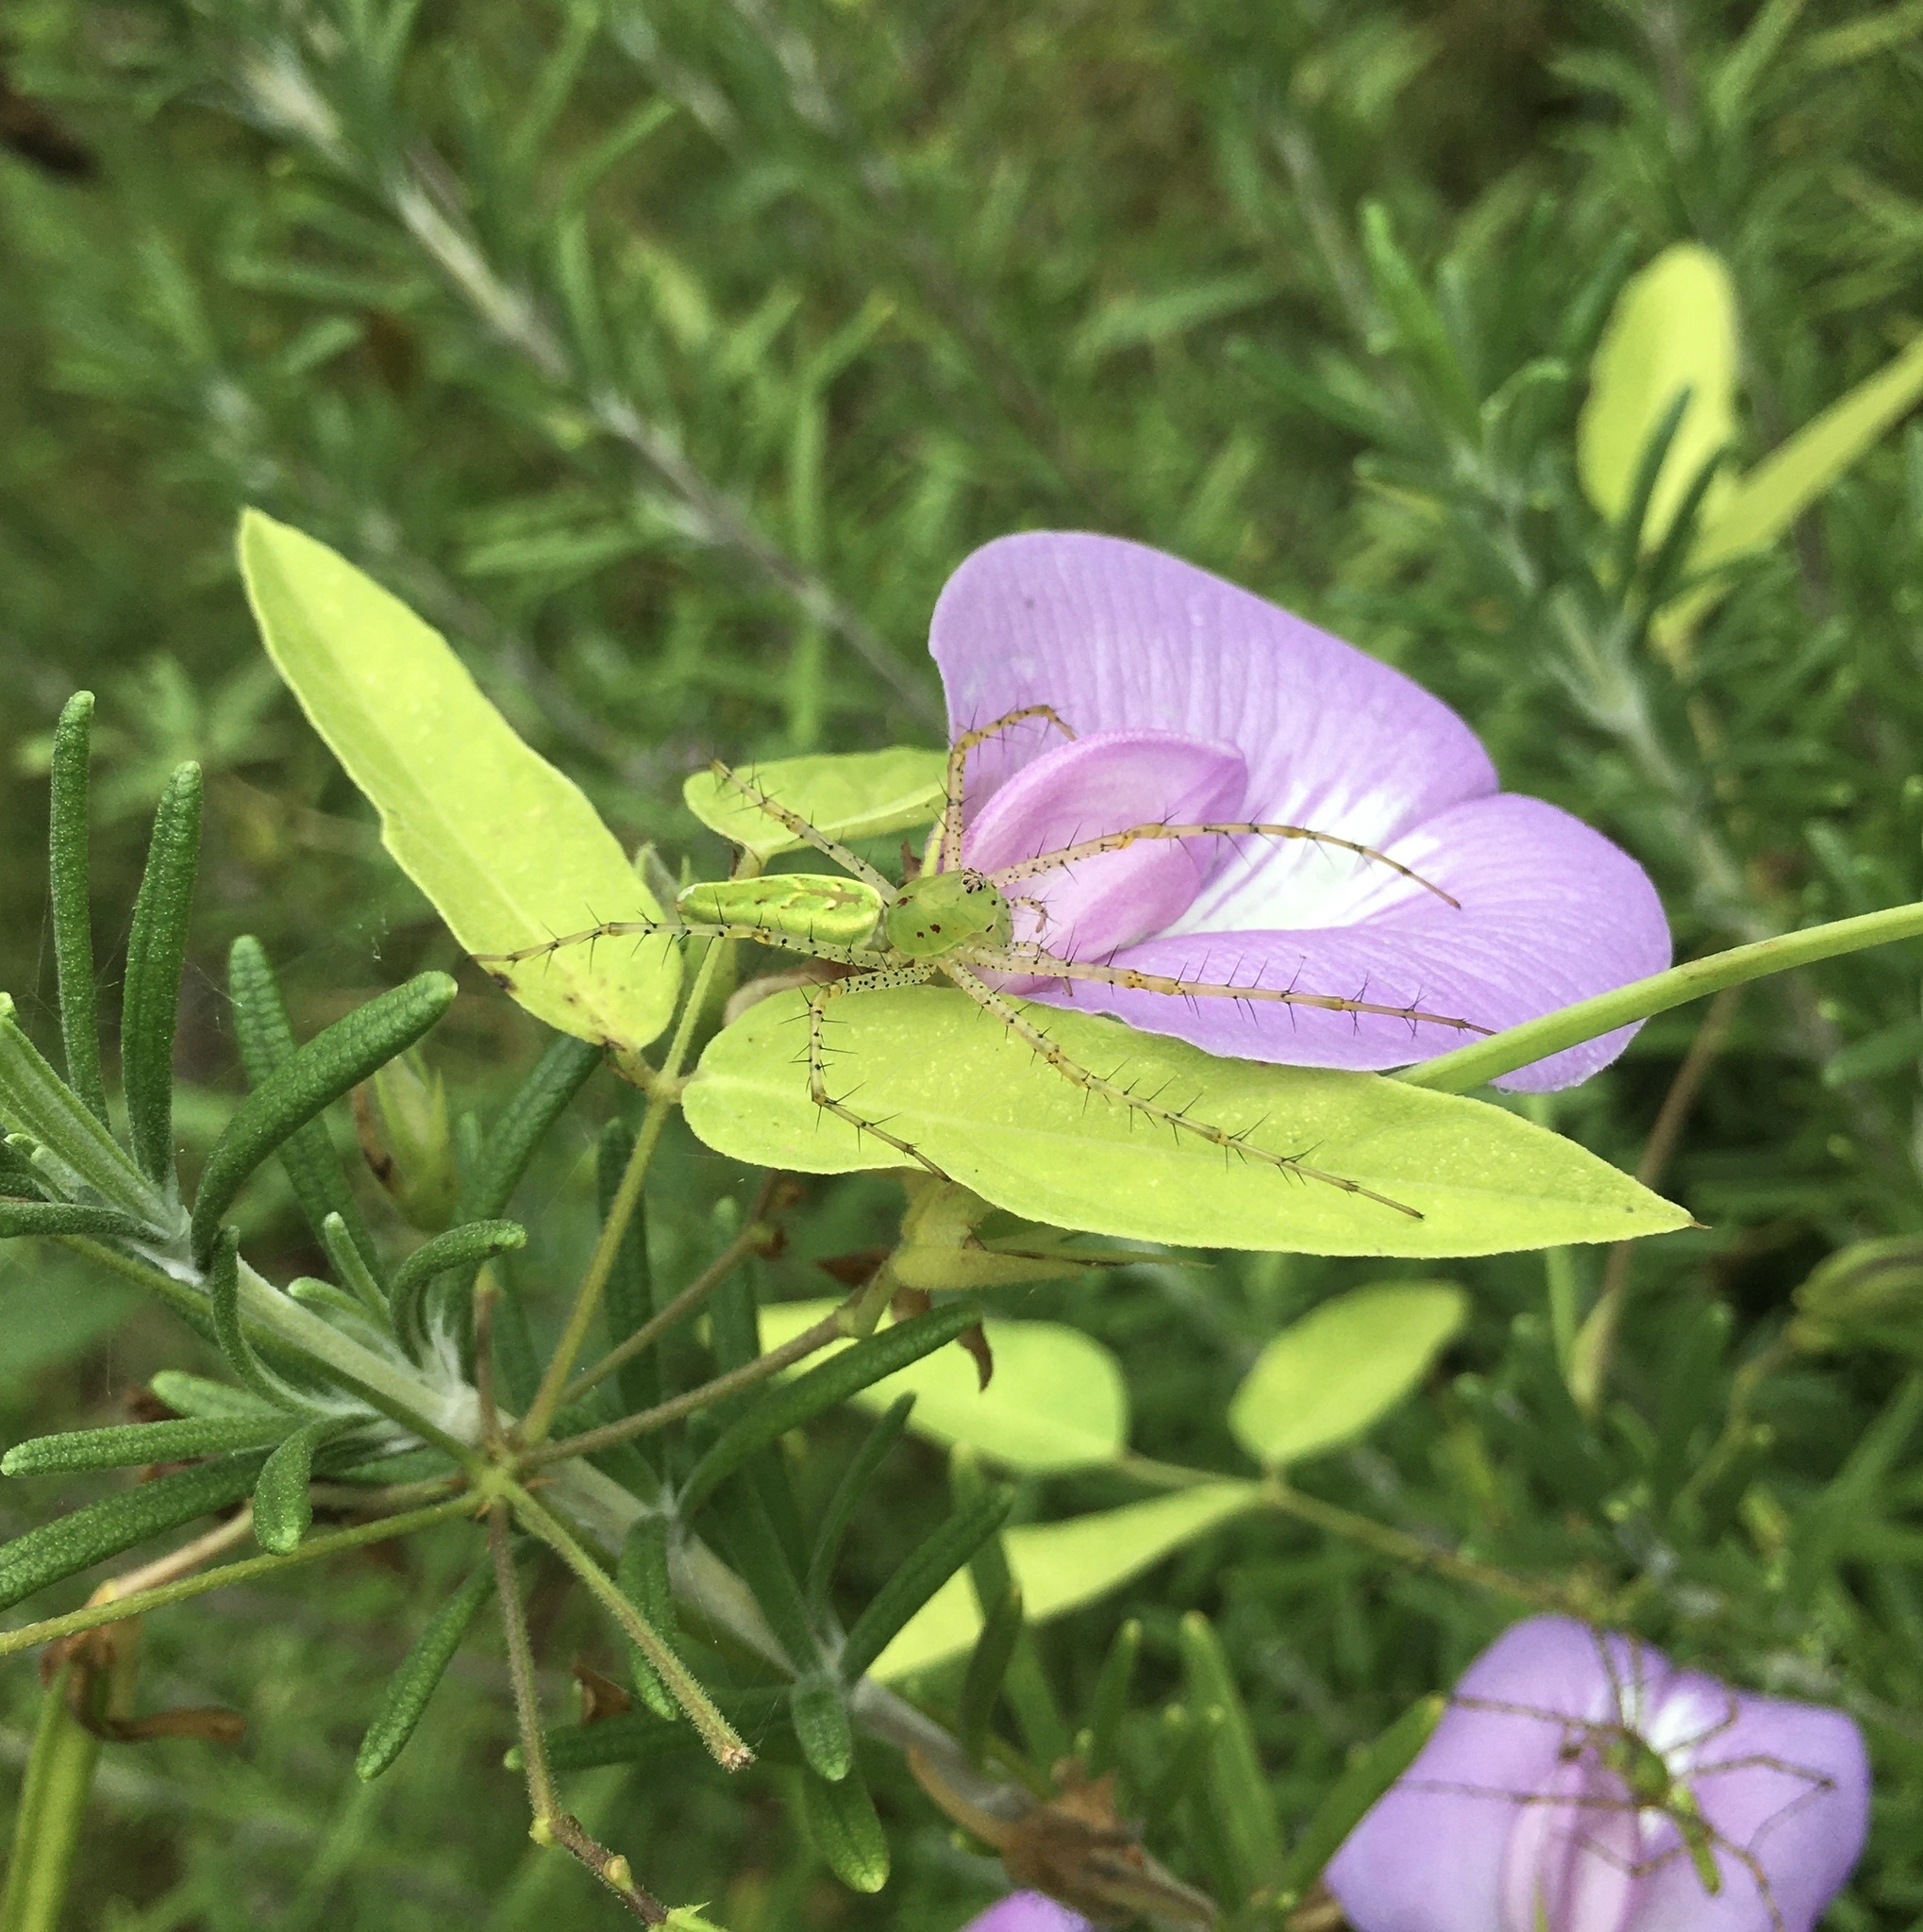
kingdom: Animalia
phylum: Arthropoda
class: Arachnida
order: Araneae
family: Oxyopidae
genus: Peucetia
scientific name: Peucetia viridans
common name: Lynx spiders
